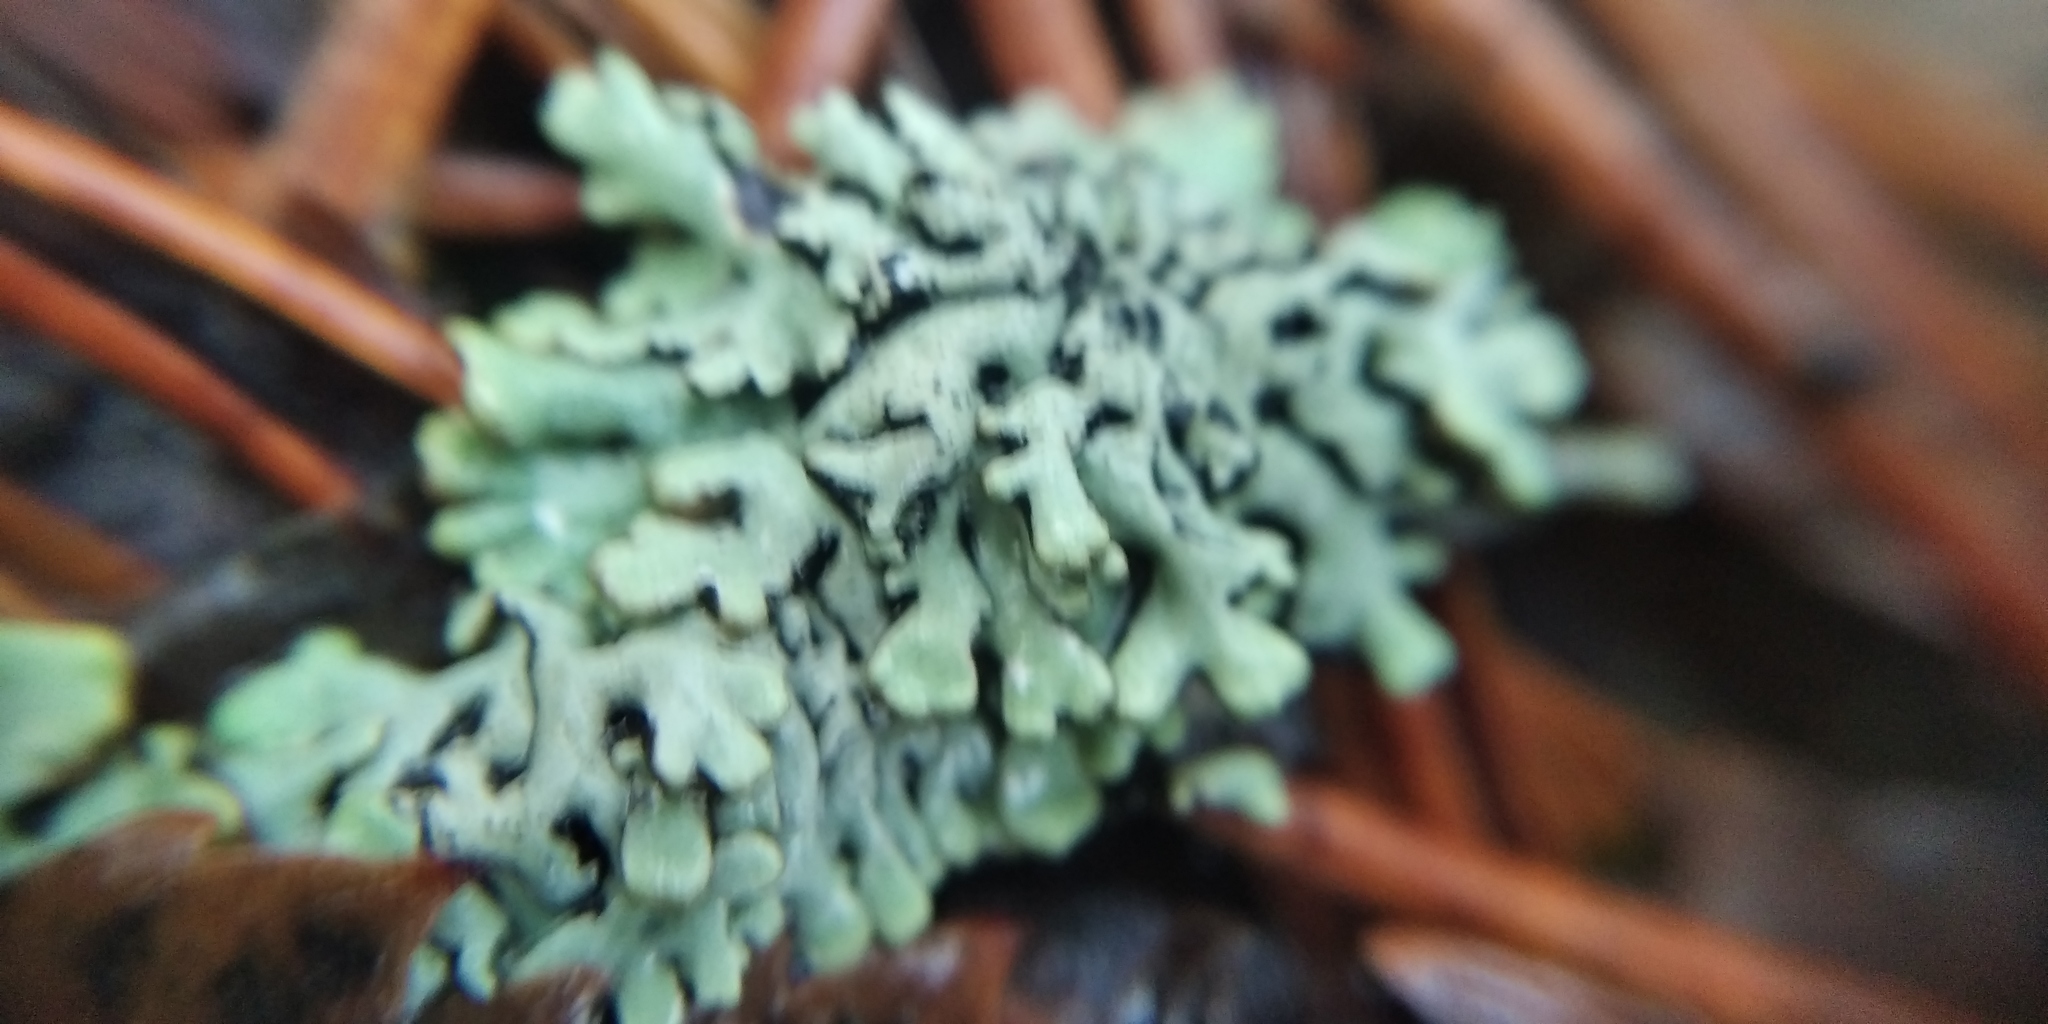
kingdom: Fungi
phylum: Ascomycota
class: Lecanoromycetes
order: Lecanorales
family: Parmeliaceae
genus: Hypogymnia
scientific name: Hypogymnia physodes
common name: Dark crottle
